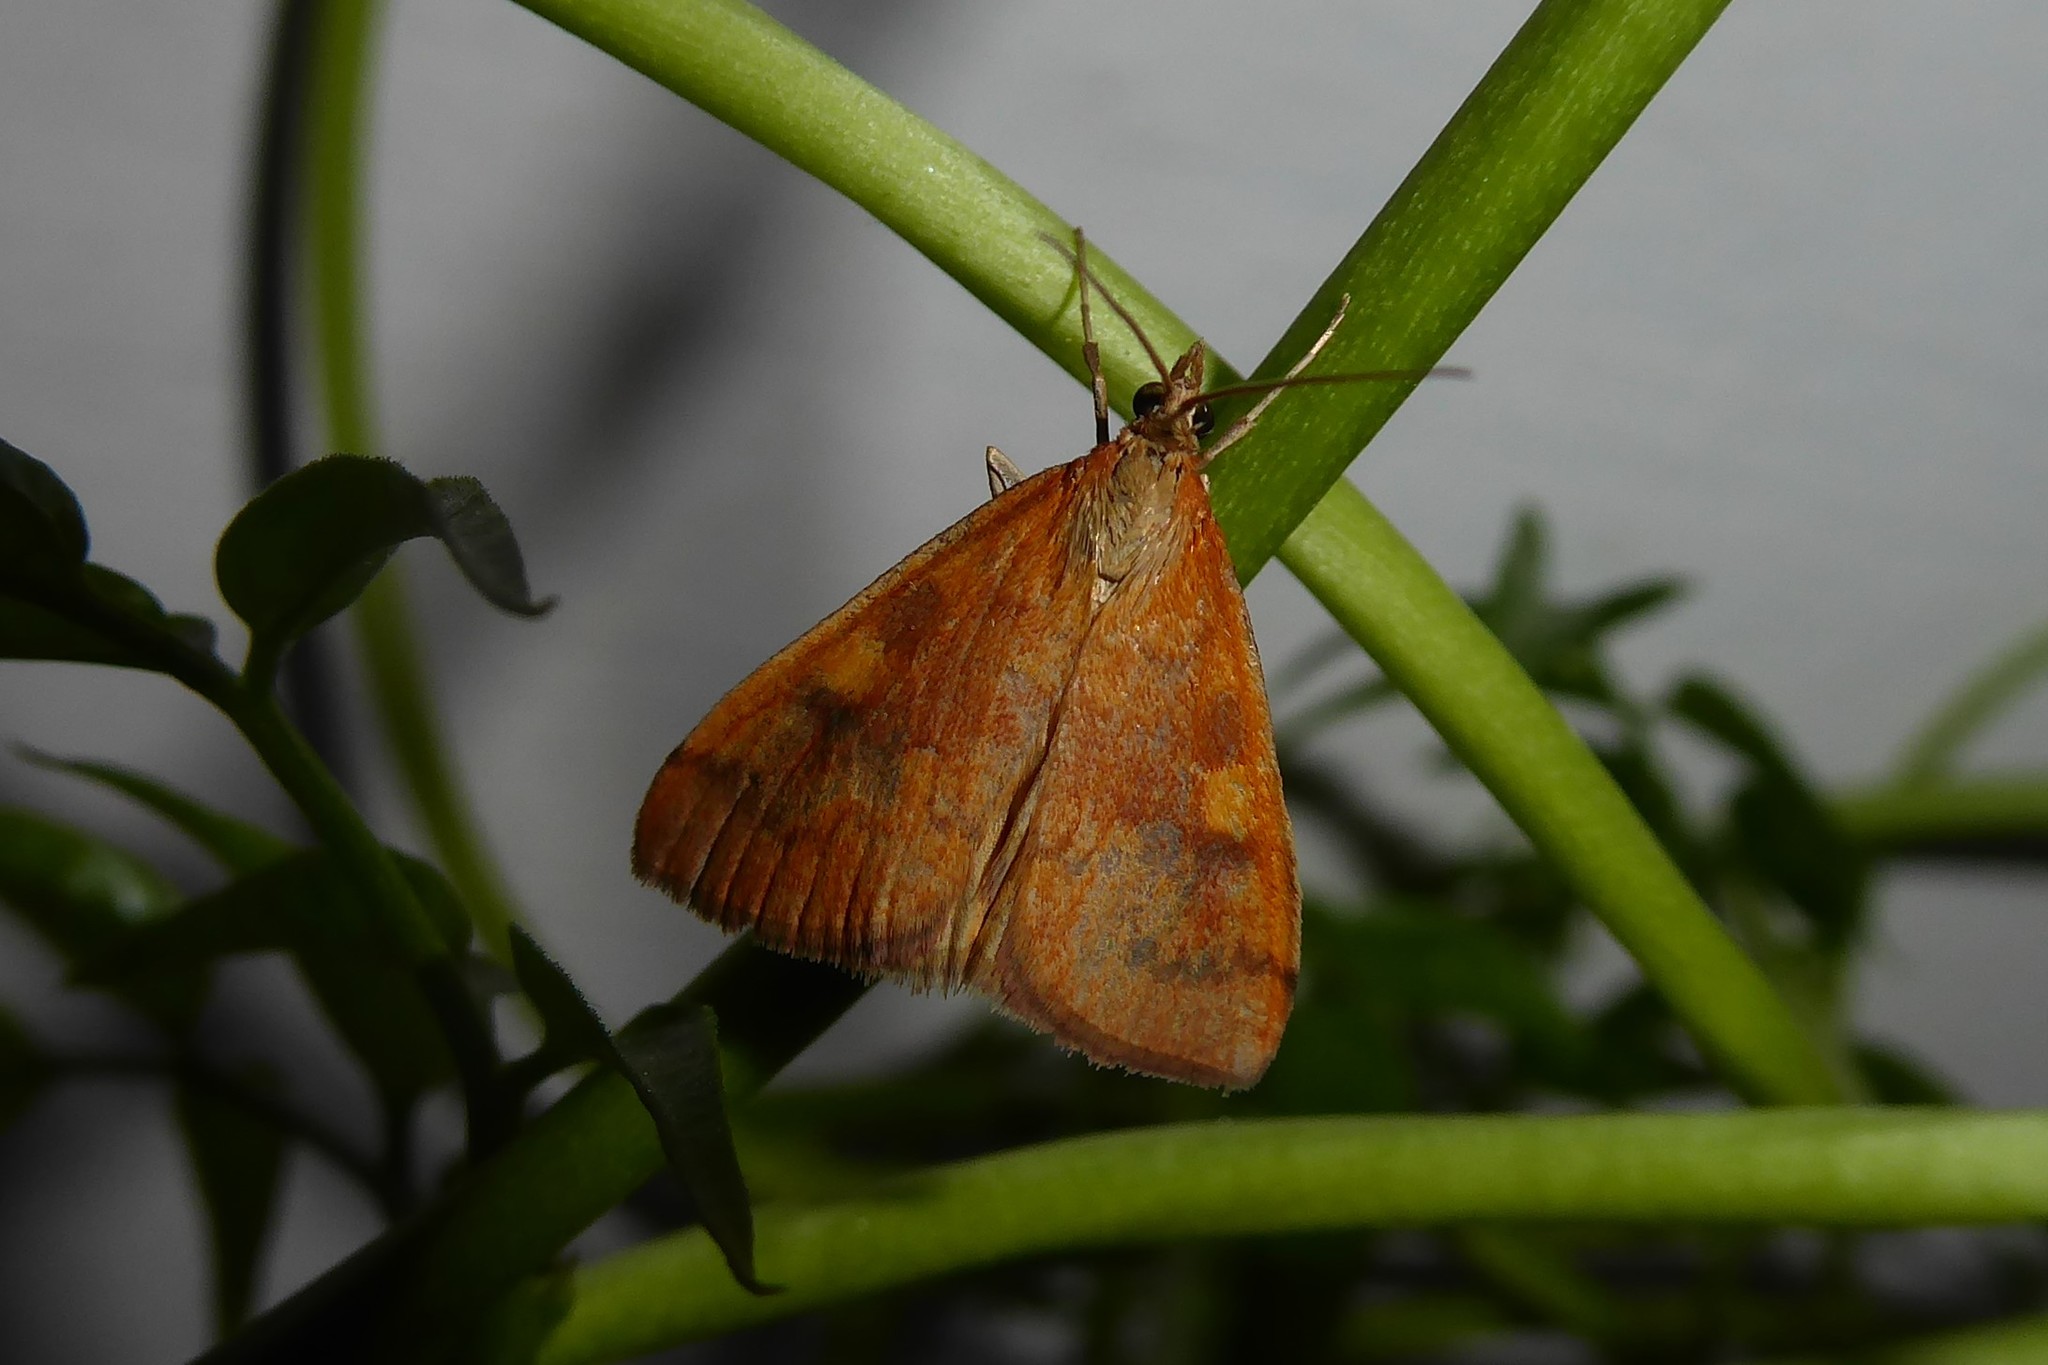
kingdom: Animalia
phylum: Arthropoda
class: Insecta
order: Lepidoptera
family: Crambidae
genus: Udea
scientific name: Udea Mnesictena flavidalis
